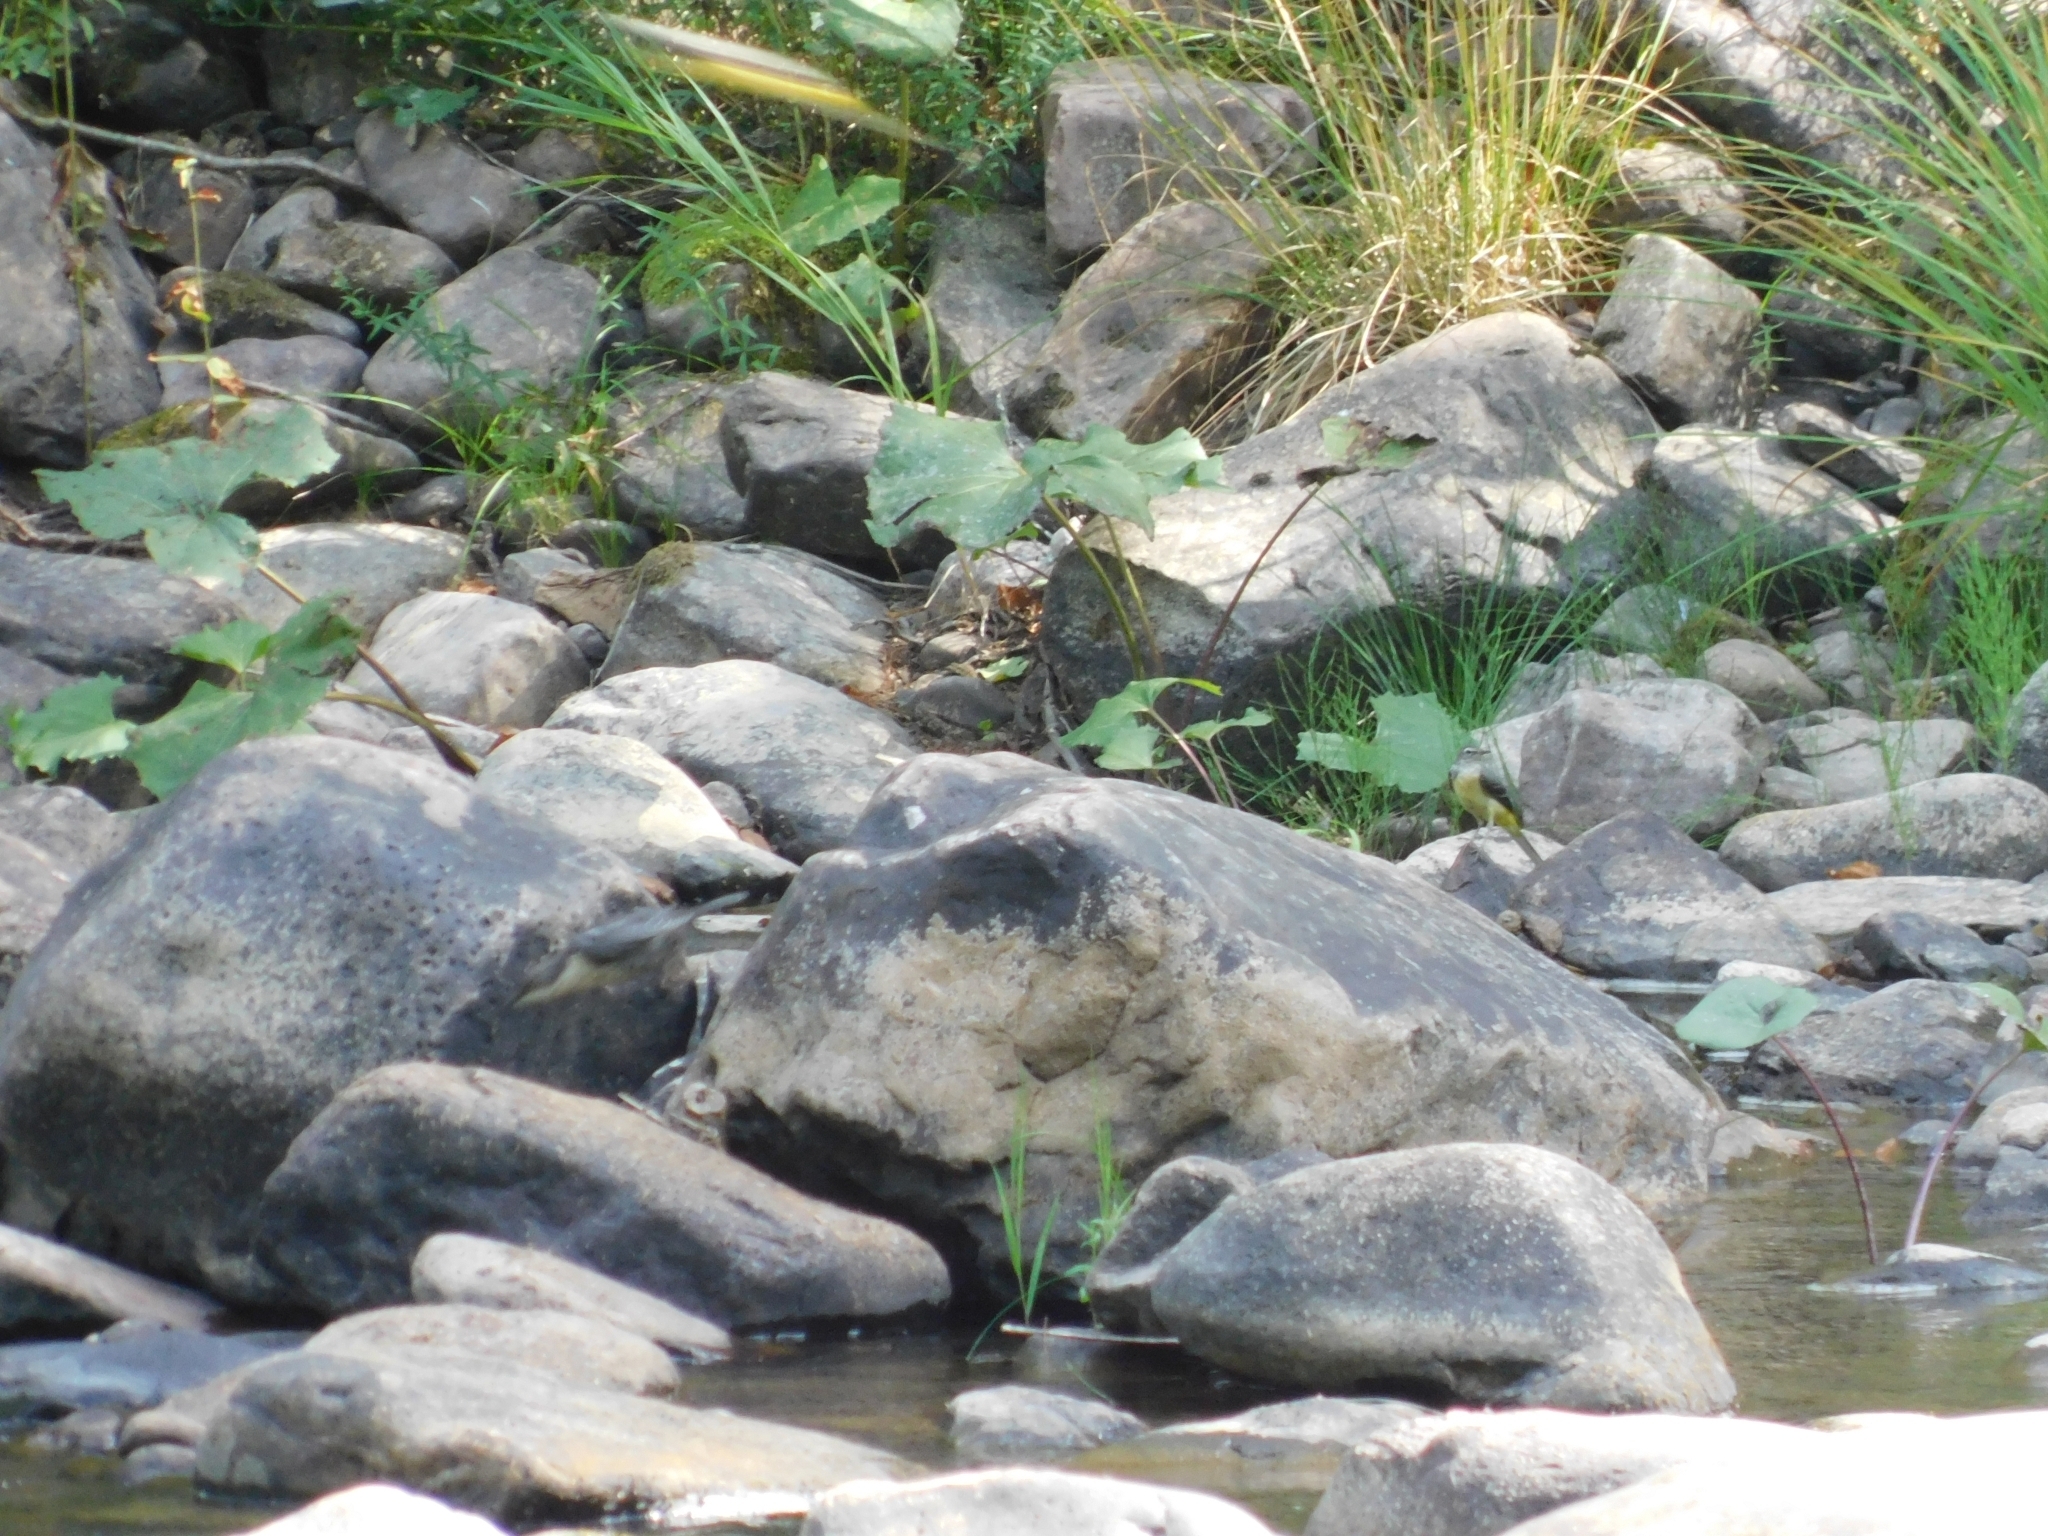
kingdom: Animalia
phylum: Chordata
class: Aves
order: Passeriformes
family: Motacillidae
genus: Motacilla
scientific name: Motacilla cinerea
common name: Grey wagtail
